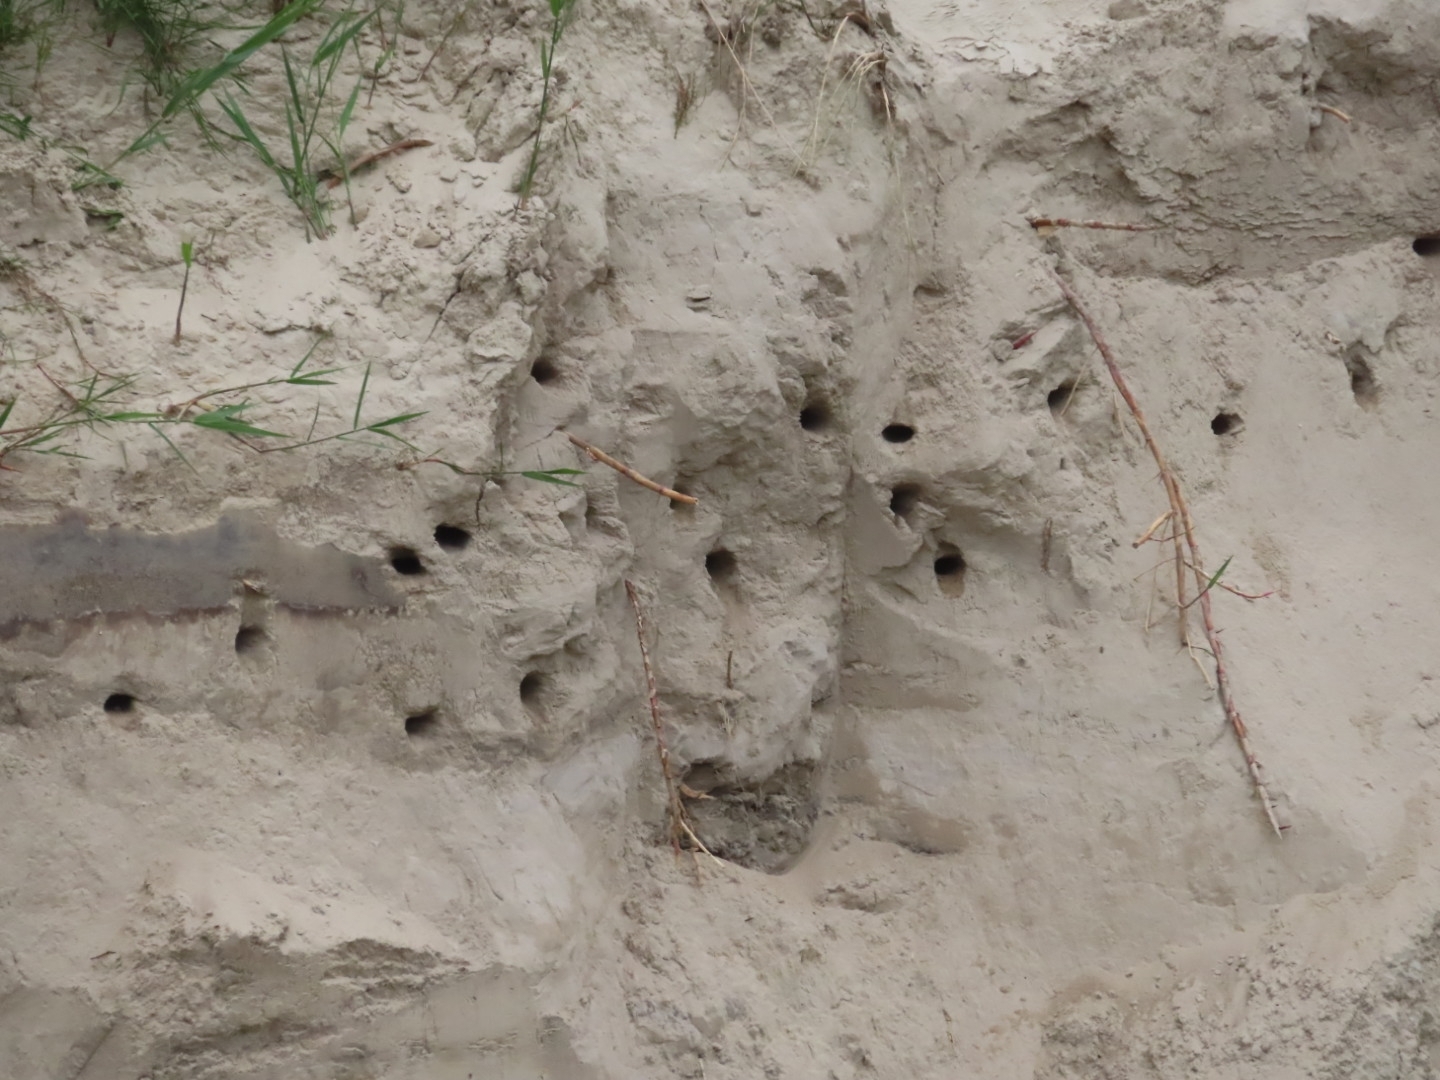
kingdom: Animalia
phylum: Chordata
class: Aves
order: Passeriformes
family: Hirundinidae
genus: Riparia
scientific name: Riparia riparia
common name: Sand martin
